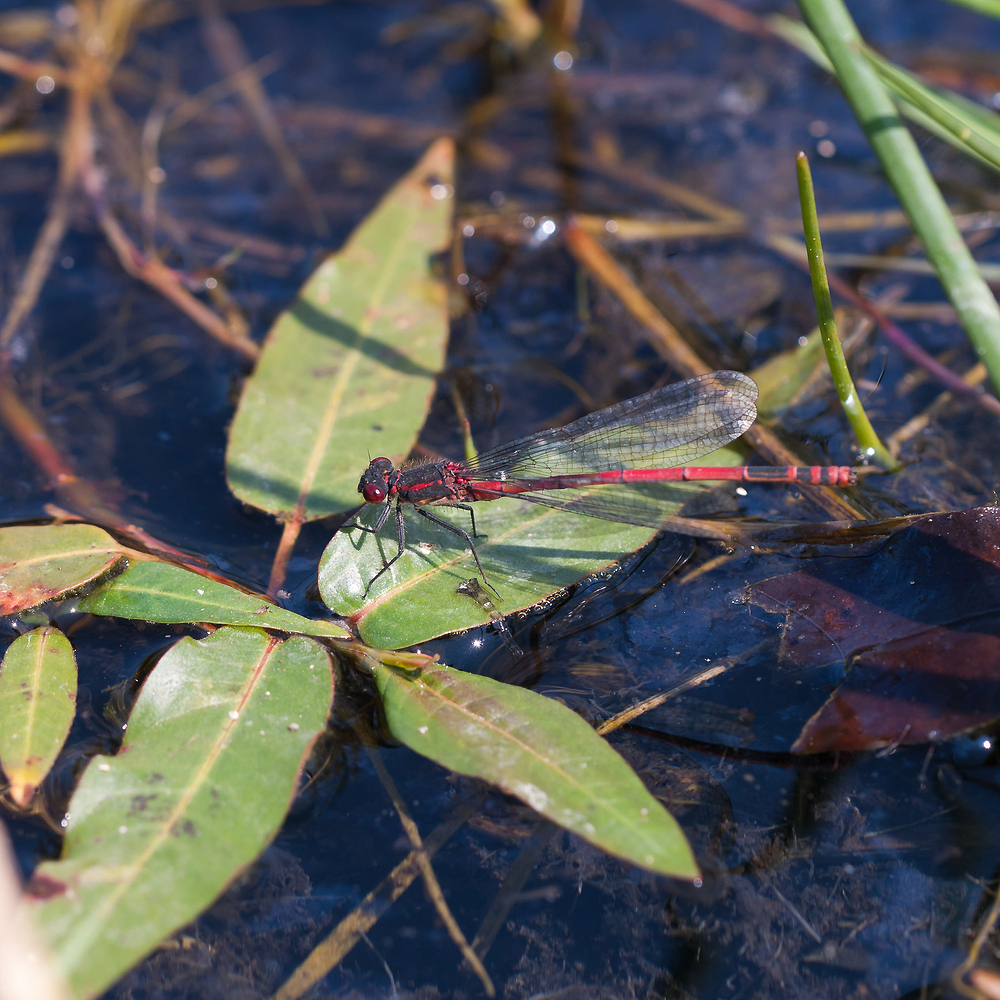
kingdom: Animalia
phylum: Arthropoda
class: Insecta
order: Odonata
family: Coenagrionidae
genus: Pyrrhosoma
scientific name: Pyrrhosoma nymphula
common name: Large red damsel
